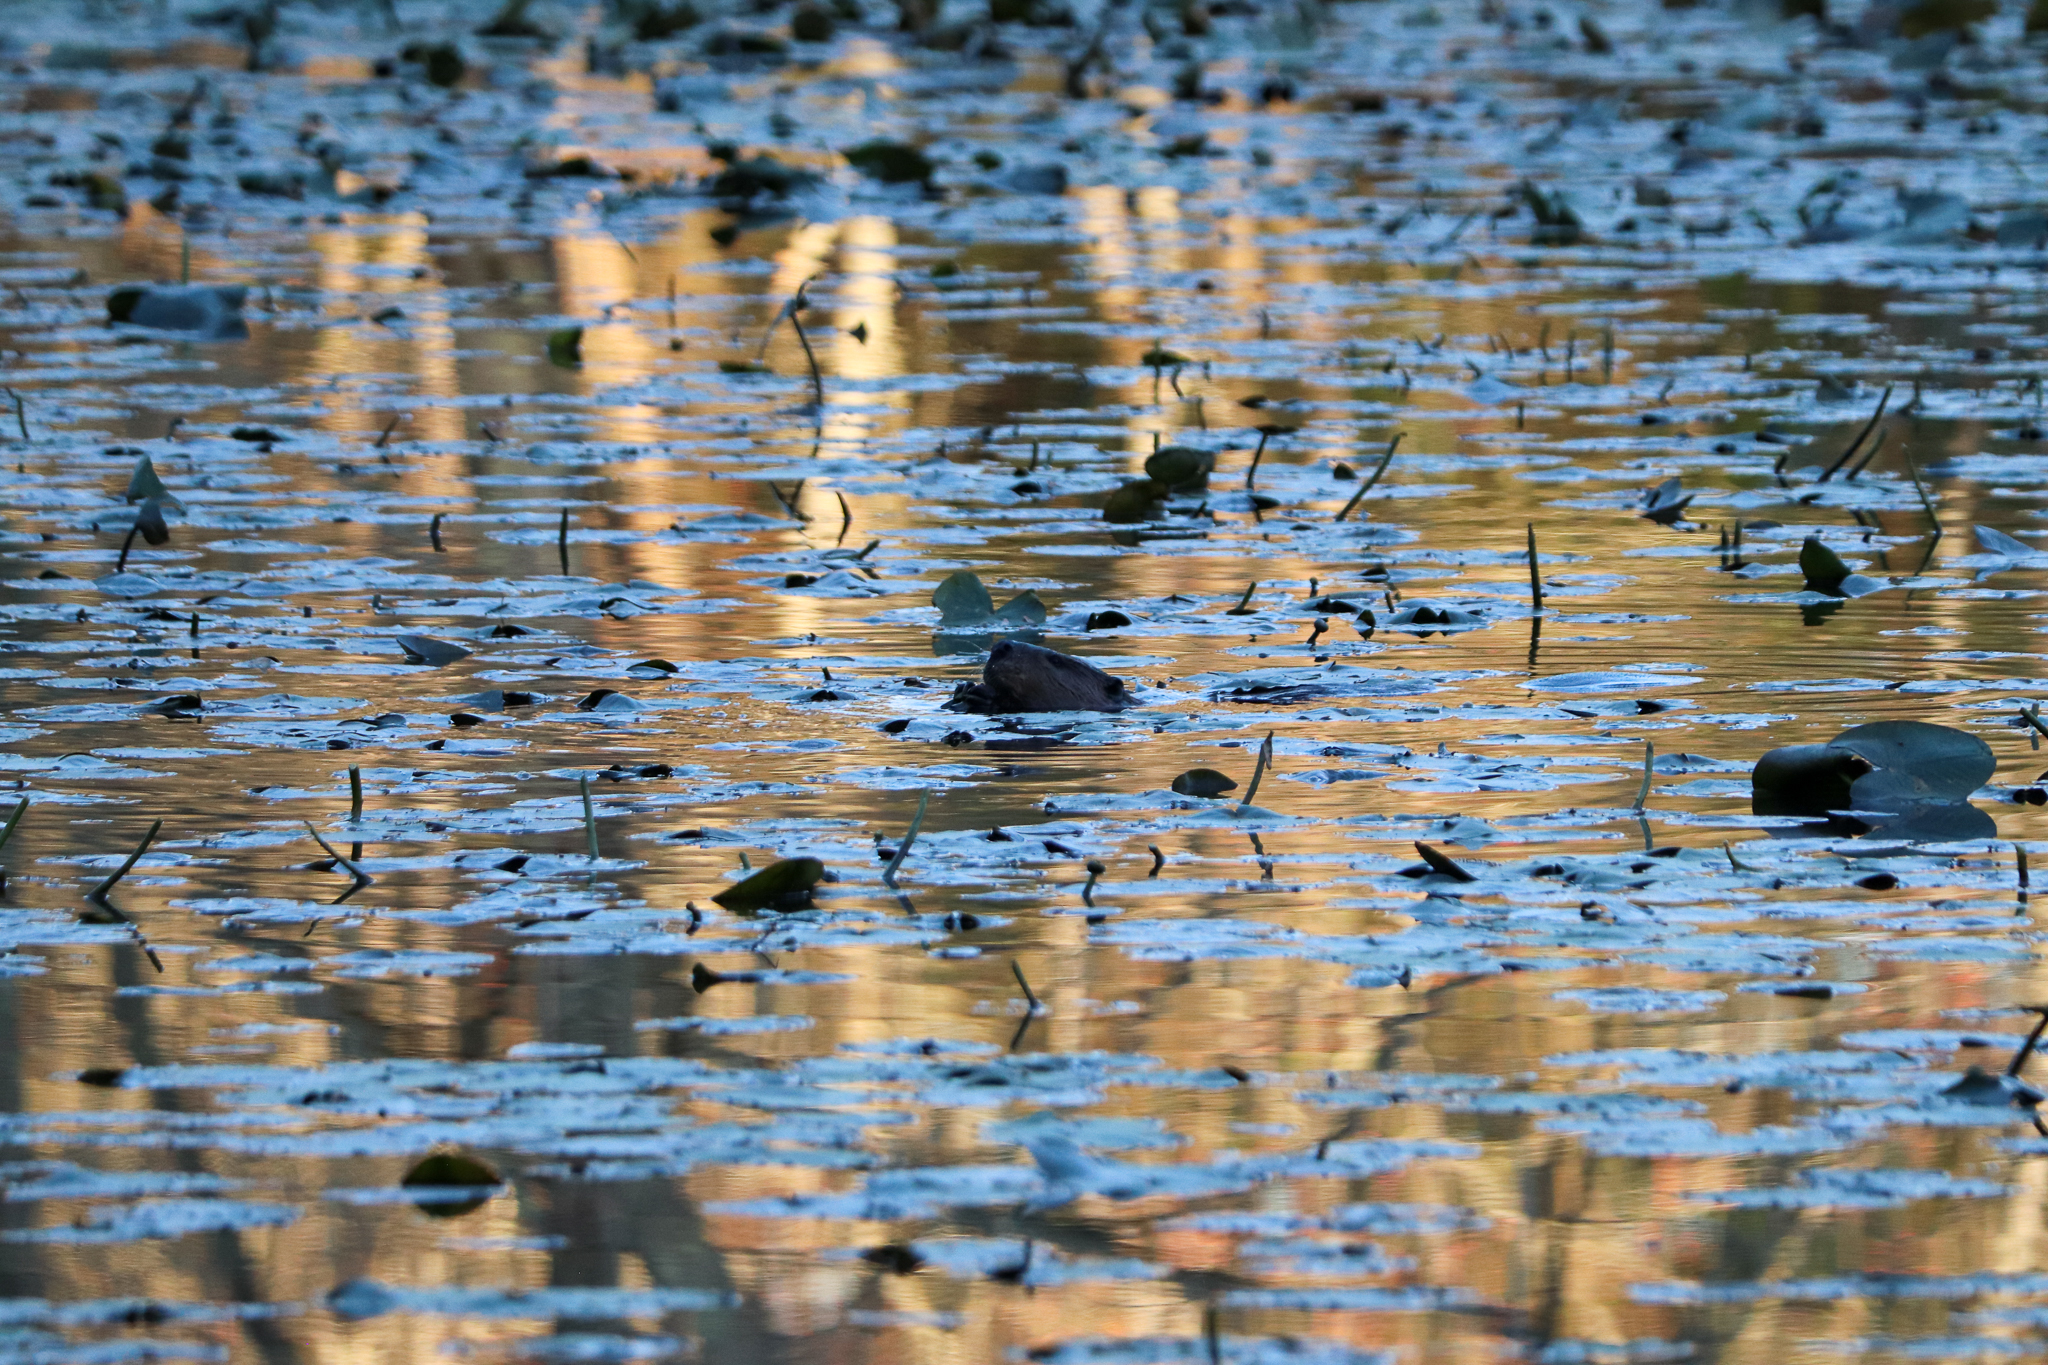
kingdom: Animalia
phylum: Chordata
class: Mammalia
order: Rodentia
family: Castoridae
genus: Castor
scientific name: Castor canadensis
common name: American beaver
